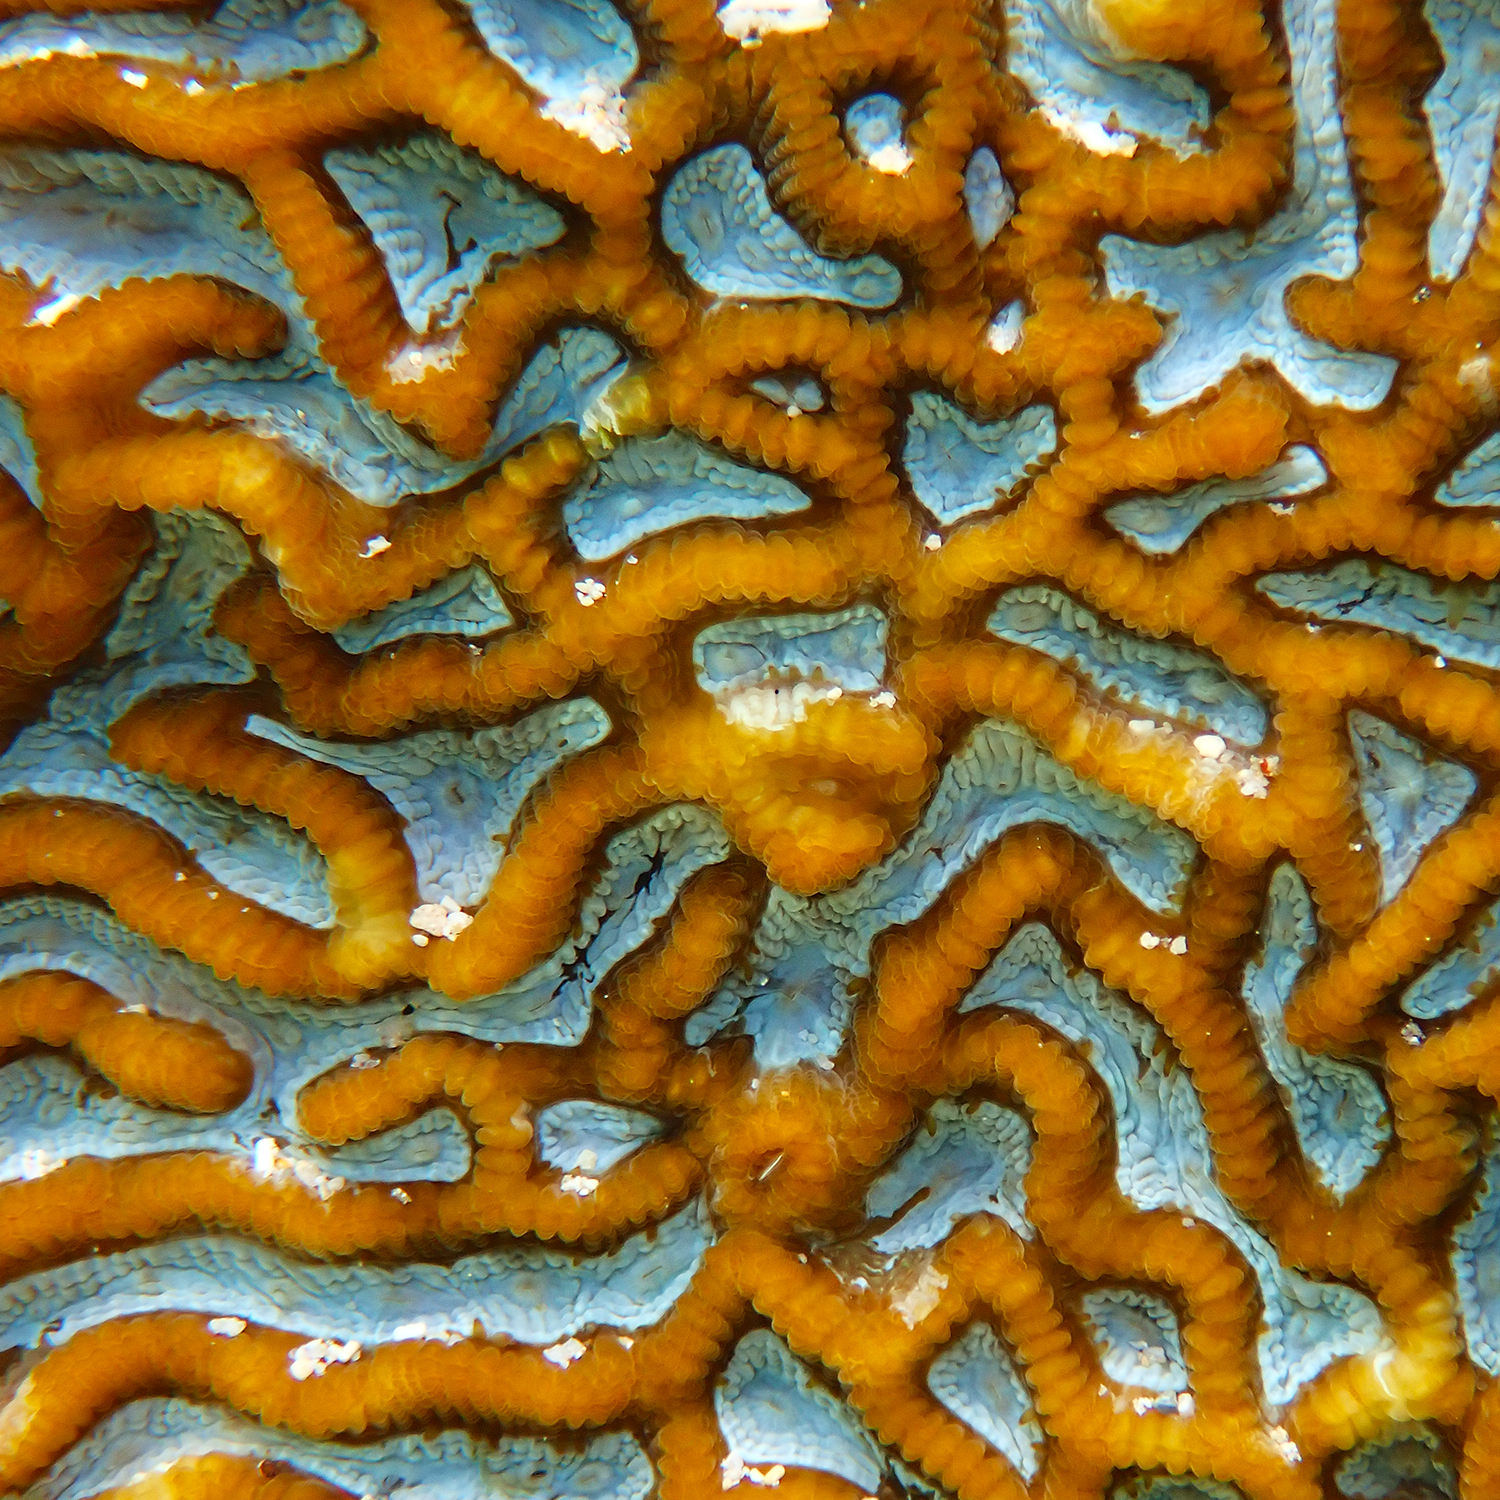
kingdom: Animalia
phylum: Cnidaria
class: Anthozoa
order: Scleractinia
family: Merulinidae
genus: Paragoniastrea
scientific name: Paragoniastrea australensis
